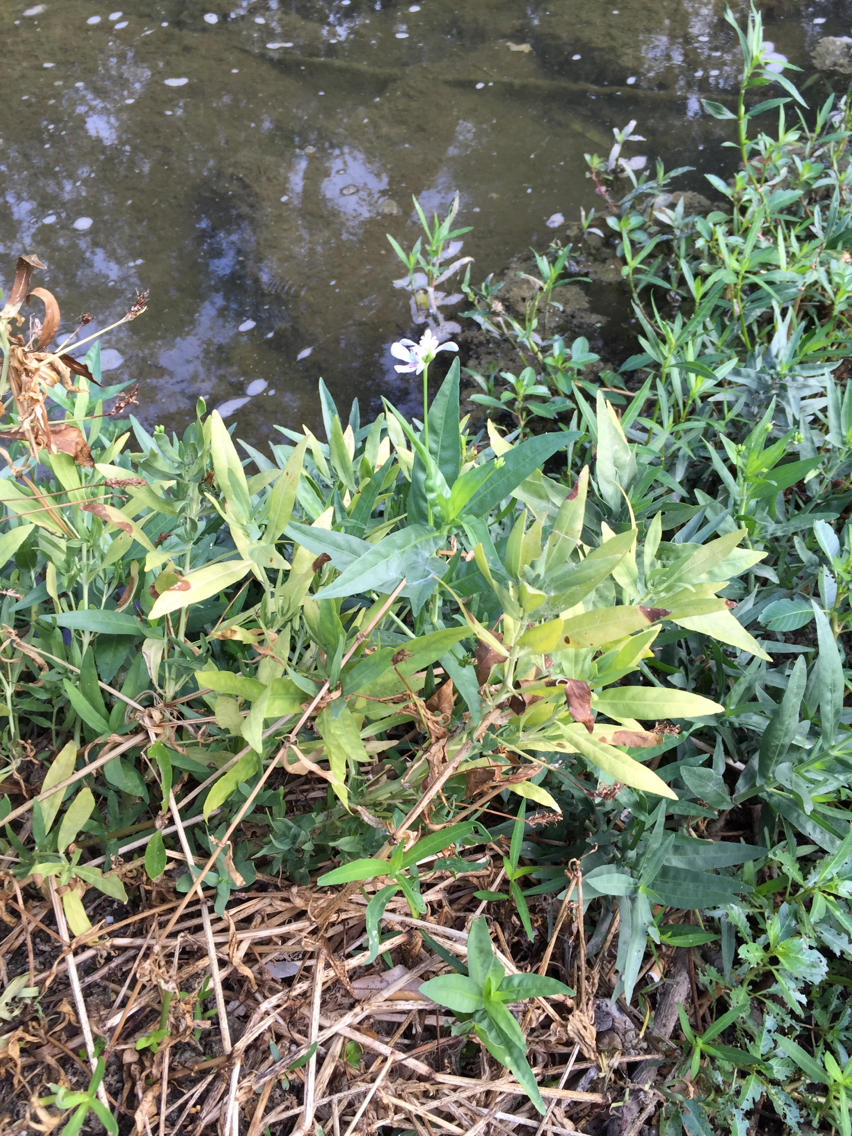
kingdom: Plantae
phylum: Tracheophyta
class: Magnoliopsida
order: Lamiales
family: Acanthaceae
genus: Dianthera
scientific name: Dianthera americana
